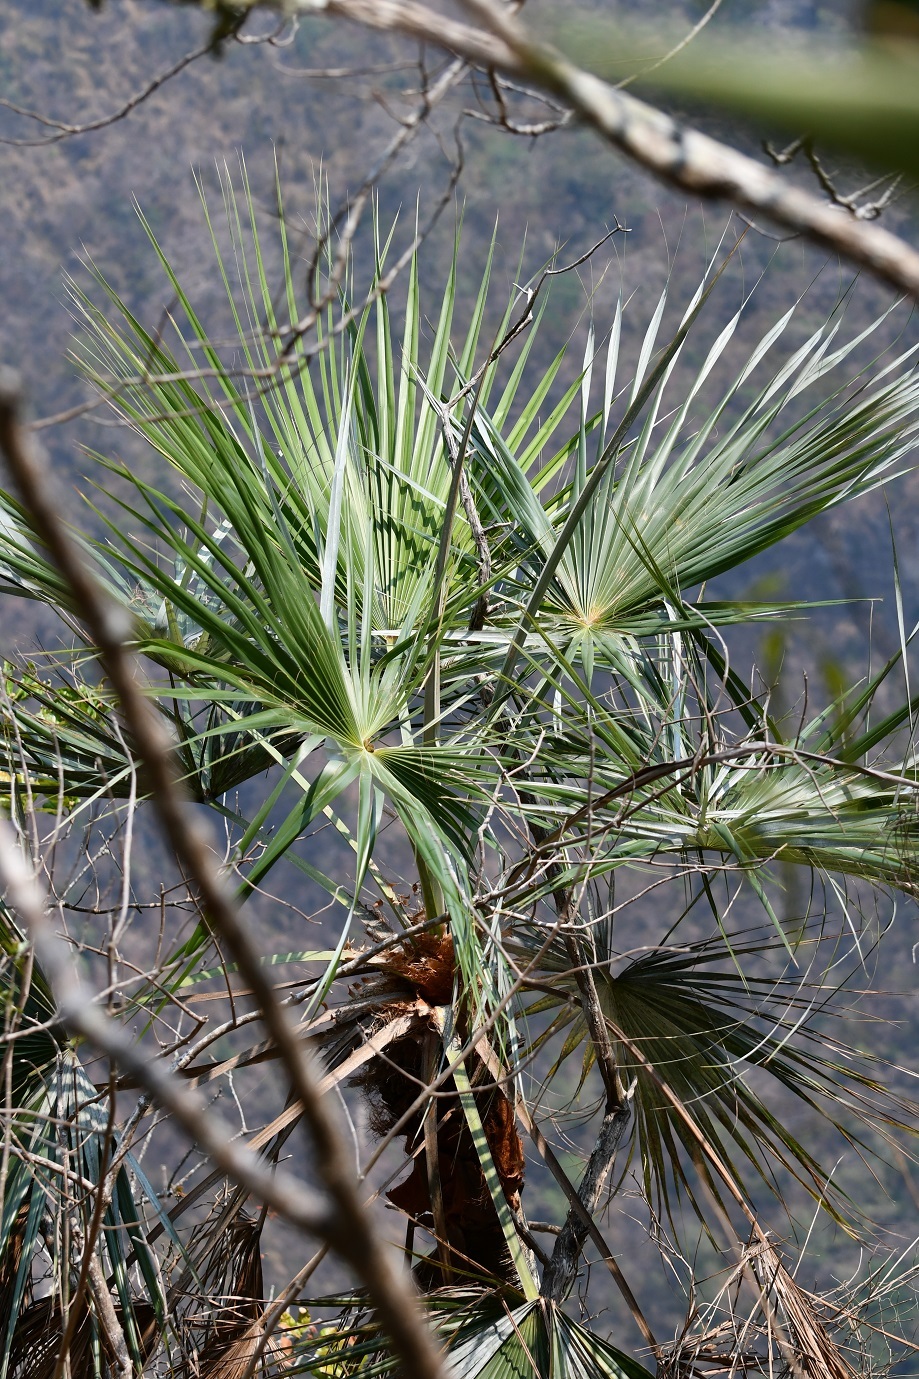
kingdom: Plantae
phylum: Tracheophyta
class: Liliopsida
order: Arecales
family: Arecaceae
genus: Brahea
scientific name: Brahea nitida
